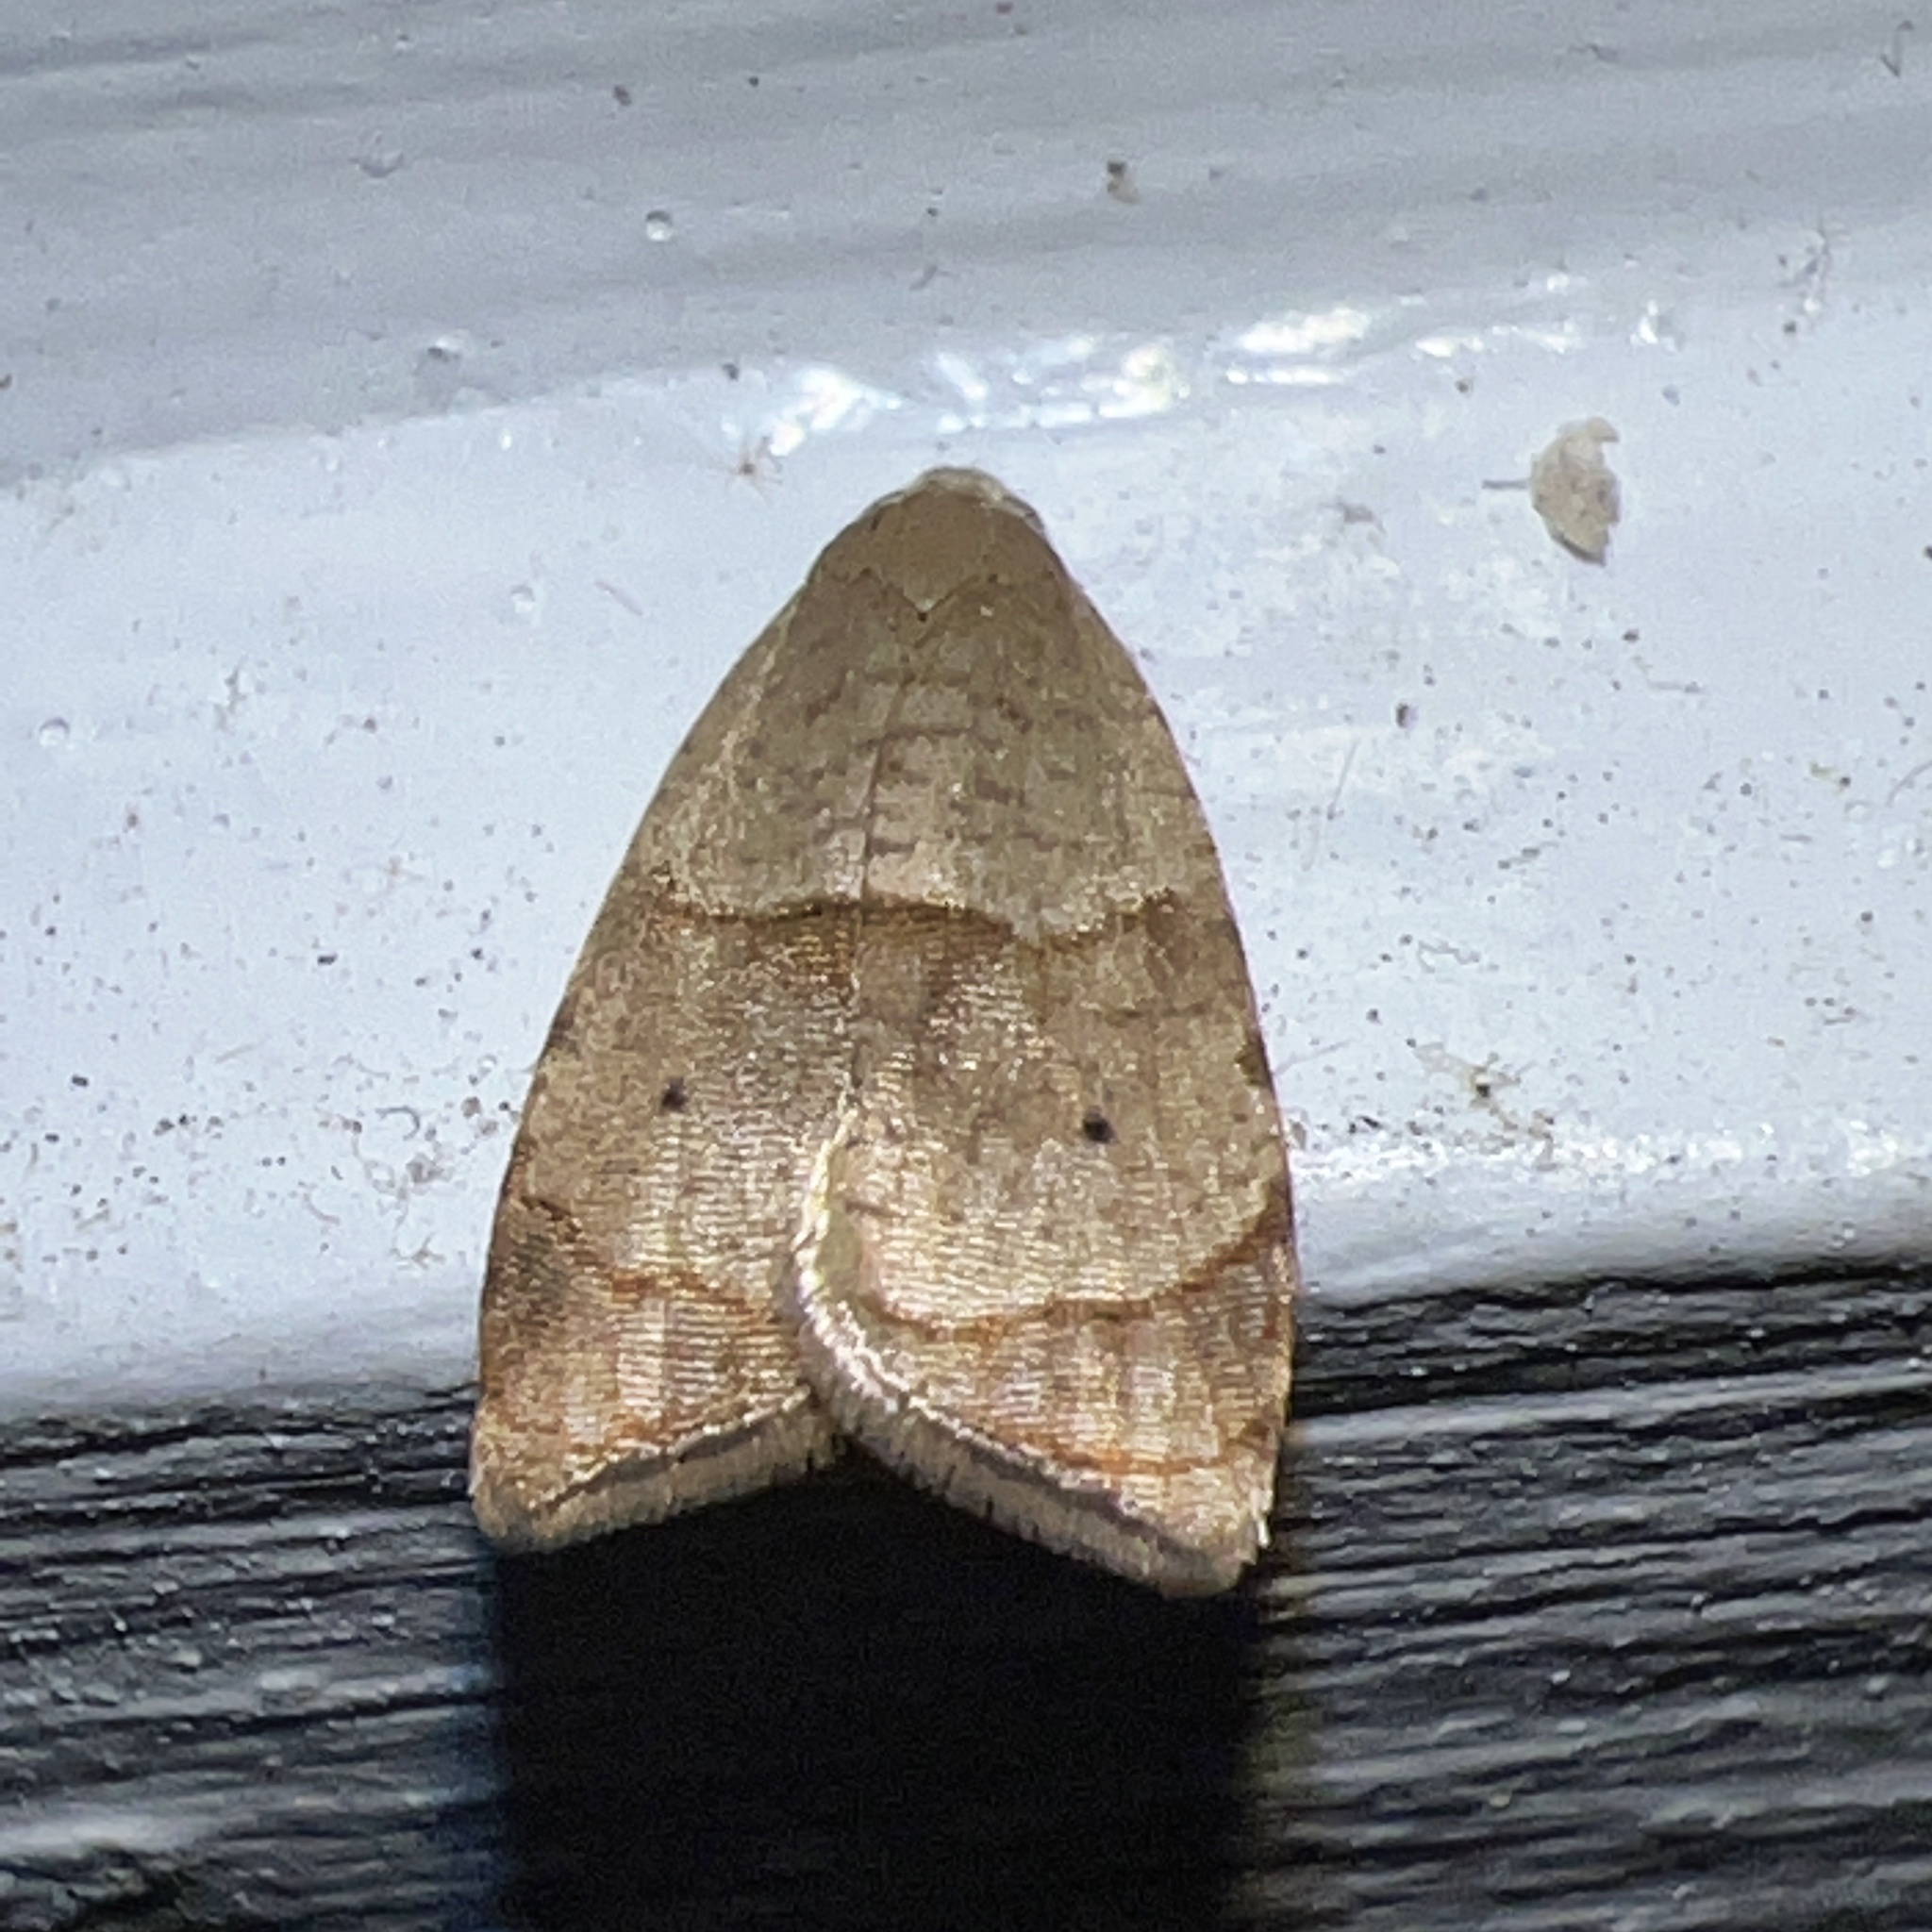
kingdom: Animalia
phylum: Arthropoda
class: Insecta
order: Lepidoptera
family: Tortricidae
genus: Coelostathma
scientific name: Coelostathma discopunctana
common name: Batman moth
